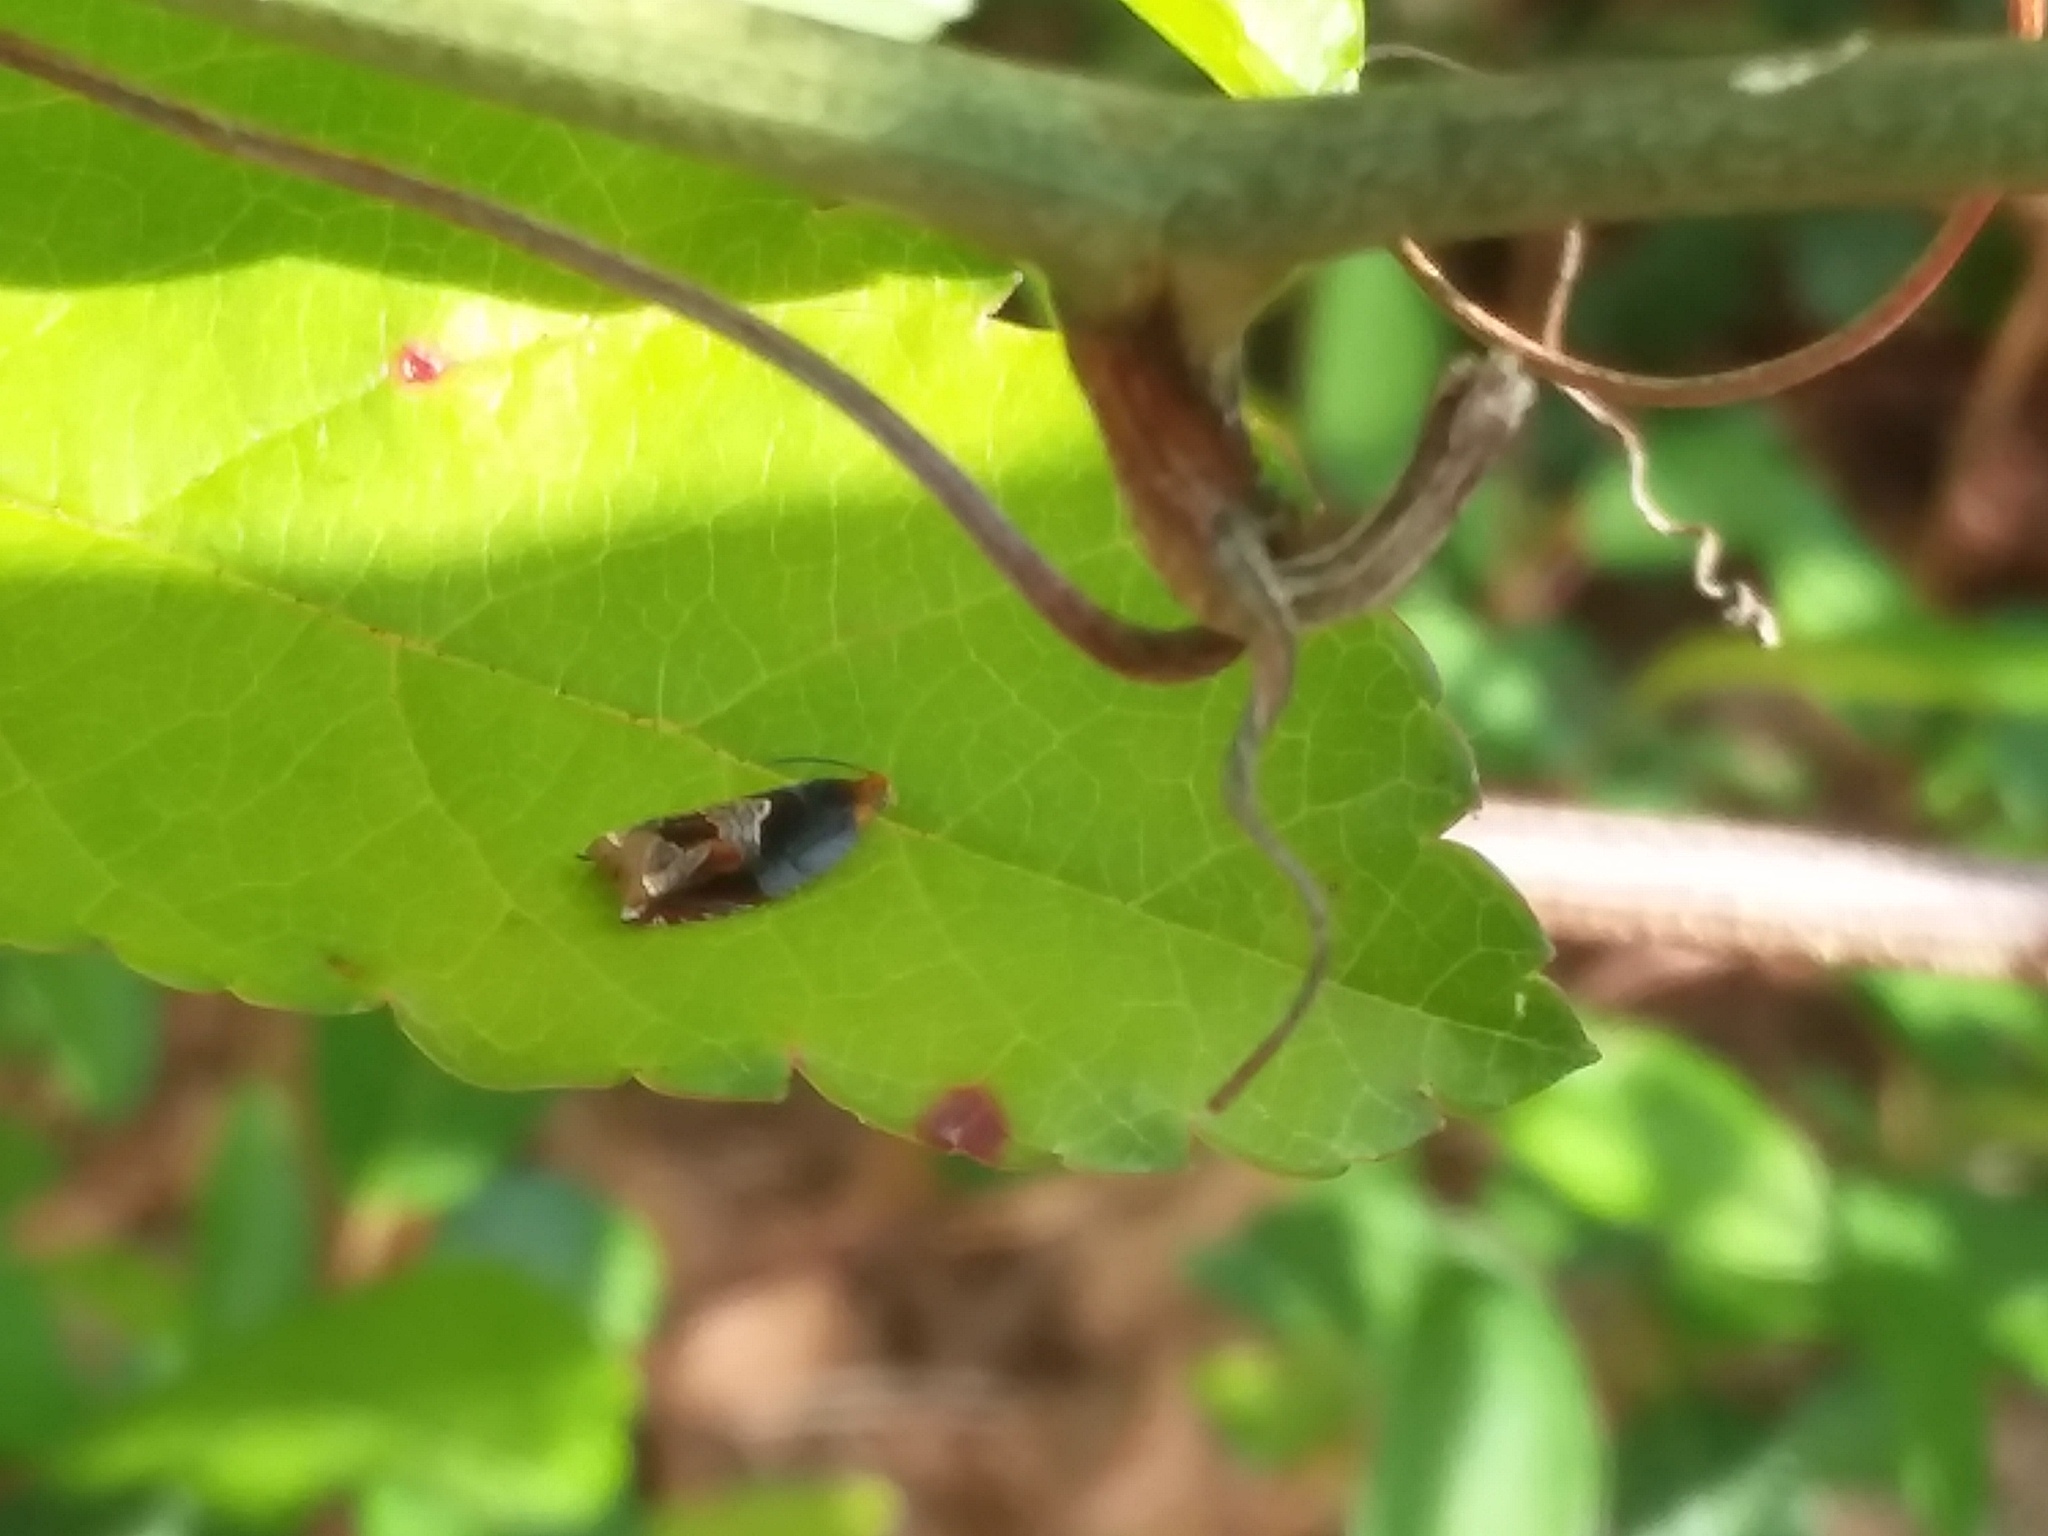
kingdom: Animalia
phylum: Arthropoda
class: Insecta
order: Lepidoptera
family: Tortricidae
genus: Ancylis
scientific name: Ancylis muricana
